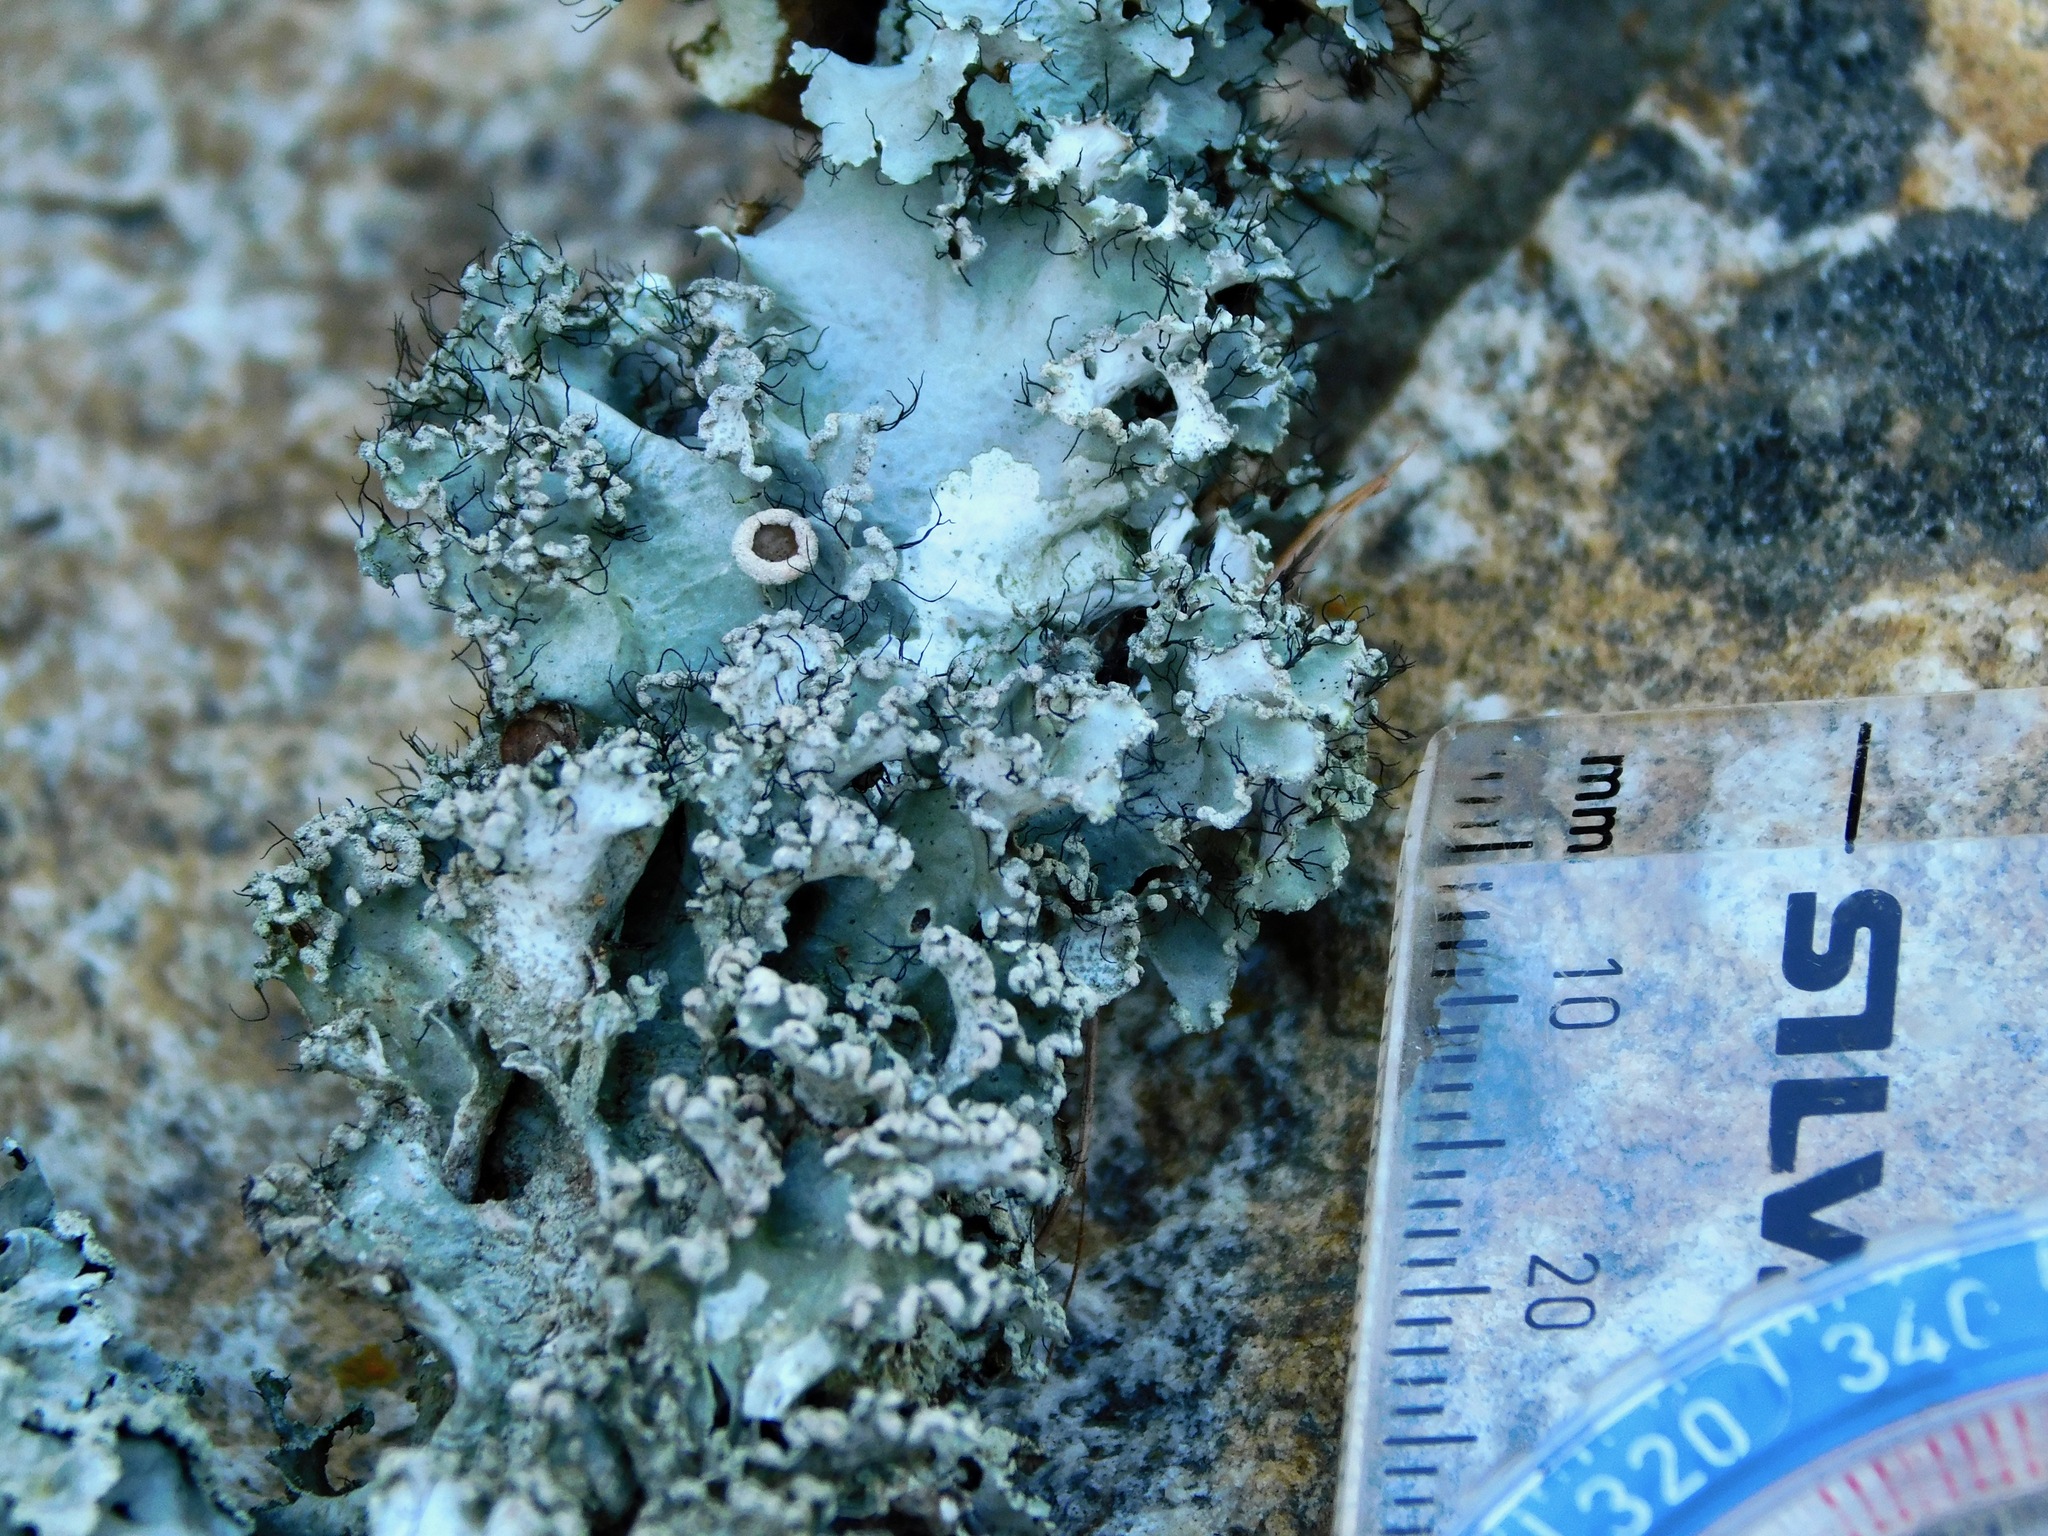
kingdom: Fungi
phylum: Ascomycota
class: Lecanoromycetes
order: Lecanorales
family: Parmeliaceae
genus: Parmotrema
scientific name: Parmotrema hypotropum
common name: Powdered ruffle lichen
